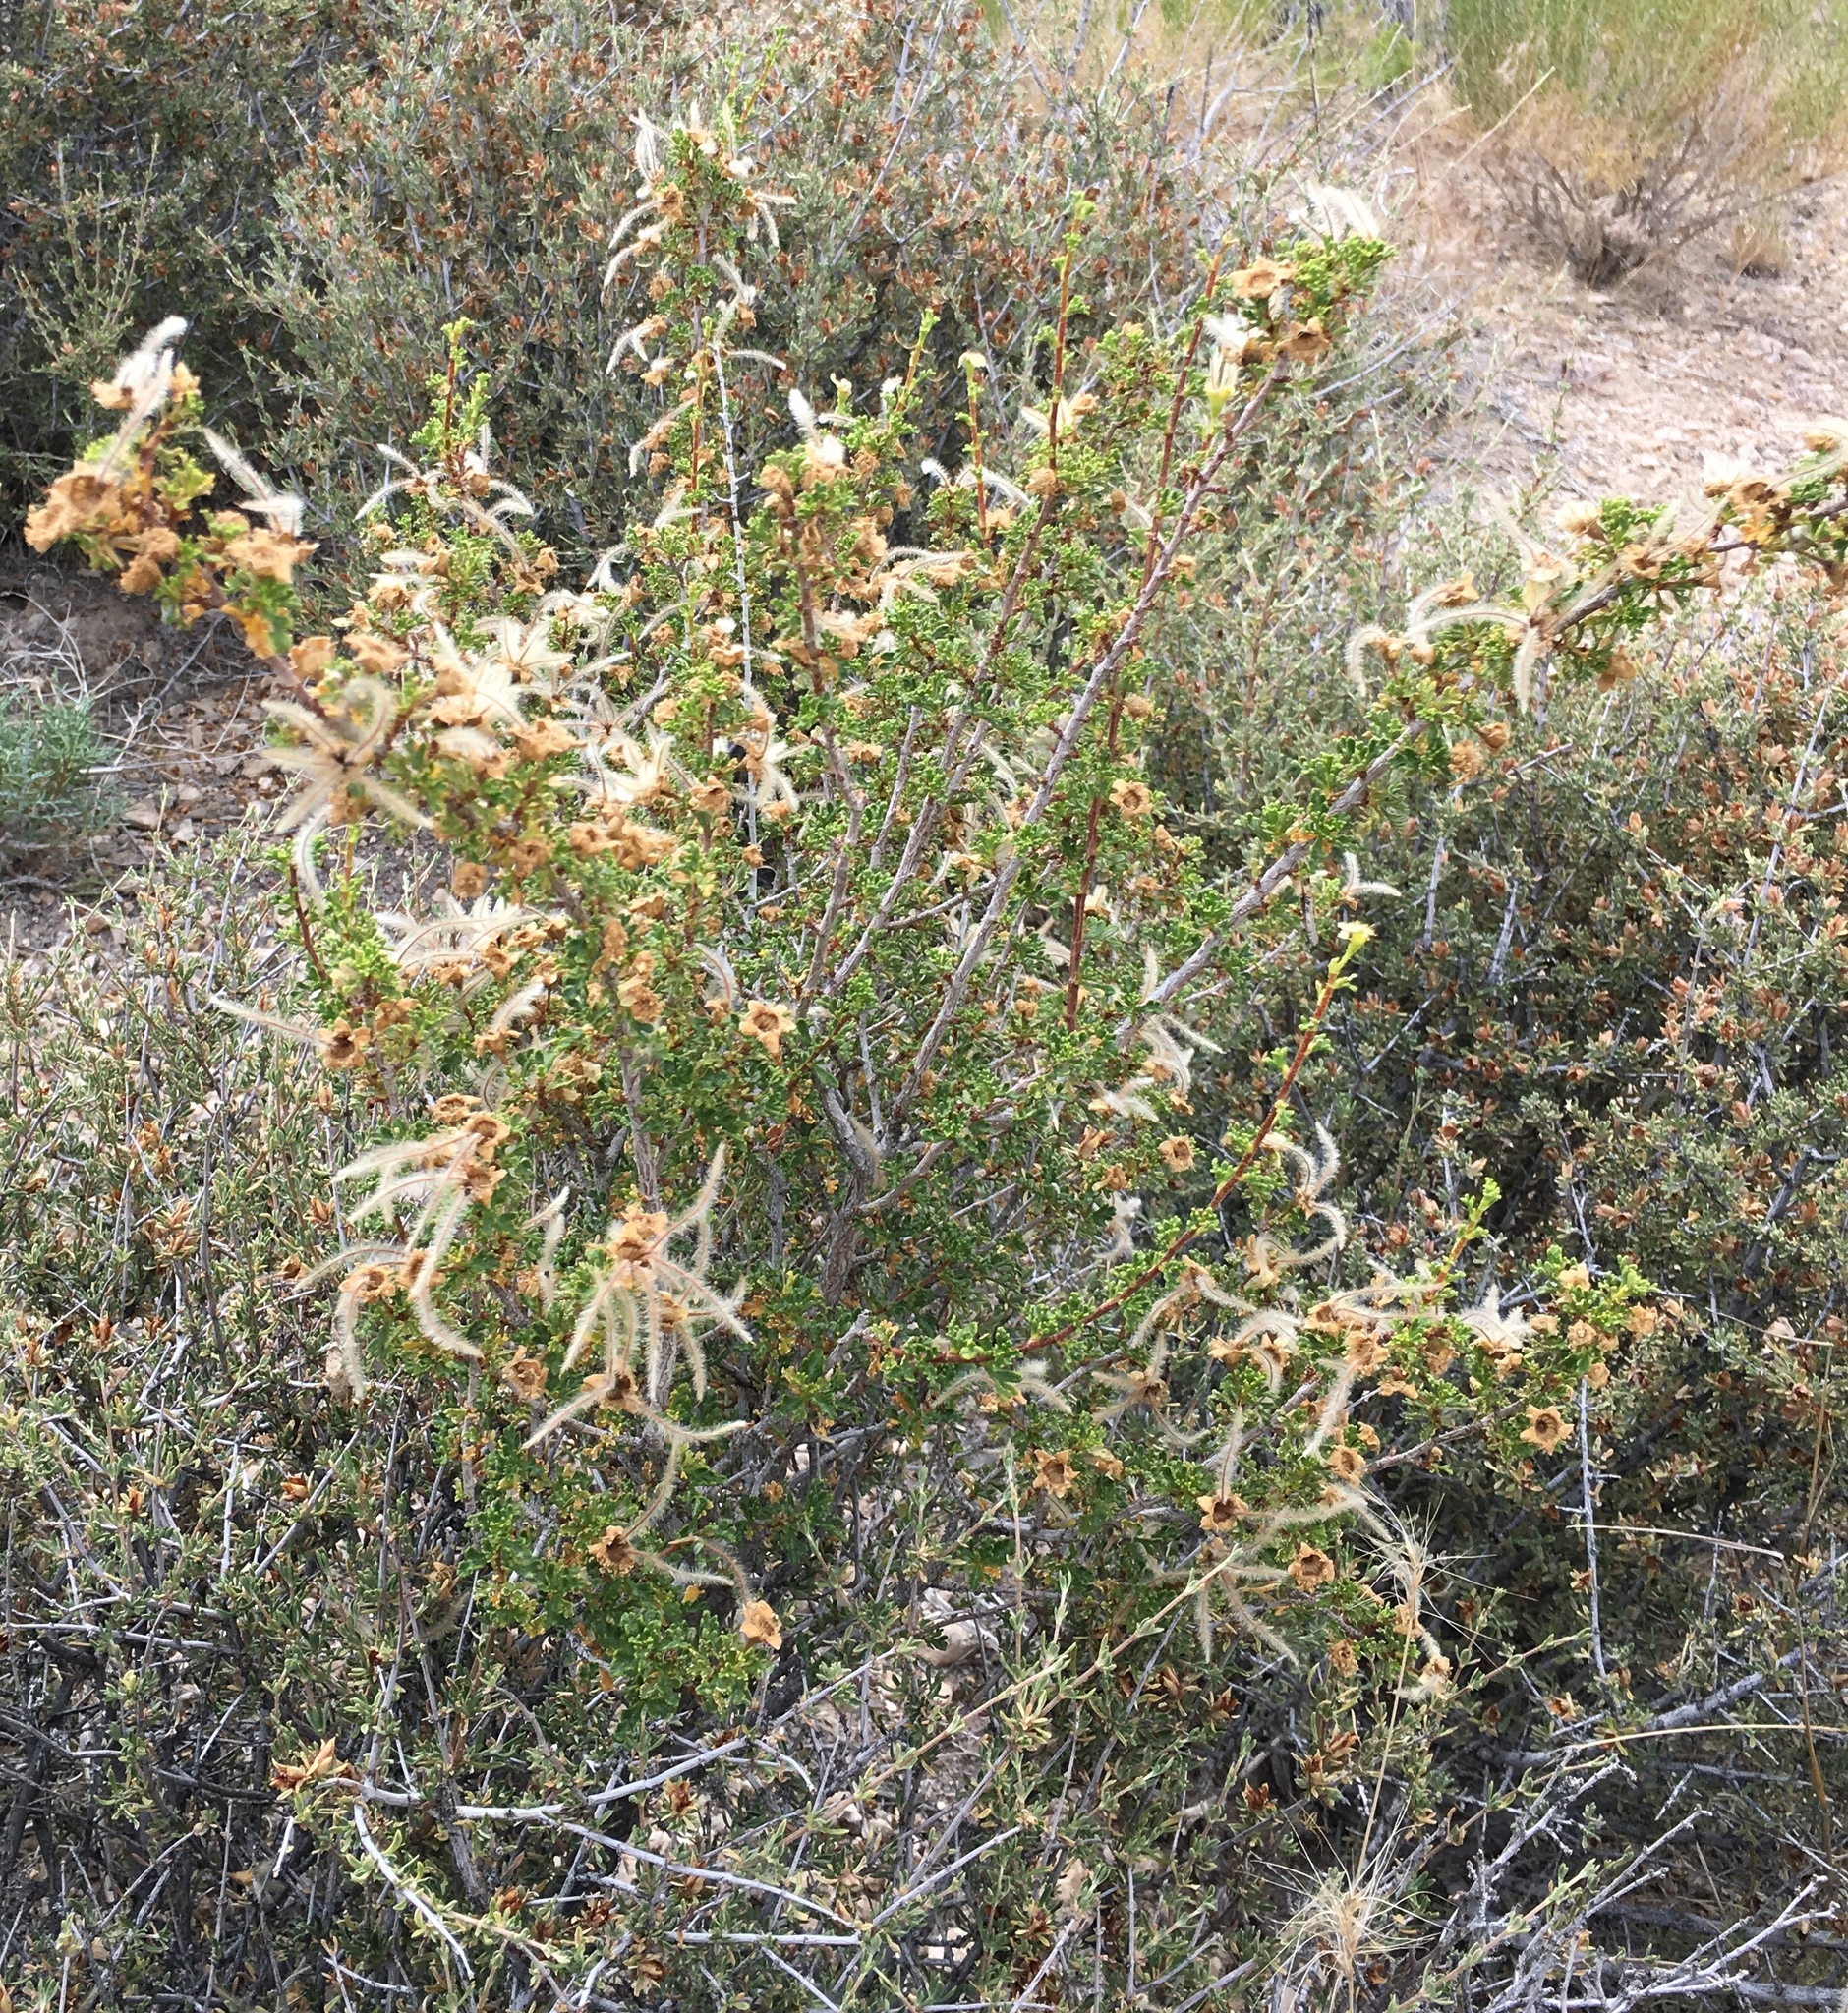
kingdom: Plantae
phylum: Tracheophyta
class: Magnoliopsida
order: Rosales
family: Rosaceae
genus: Purshia
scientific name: Purshia stansburiana
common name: Stansbury's cliffrose
